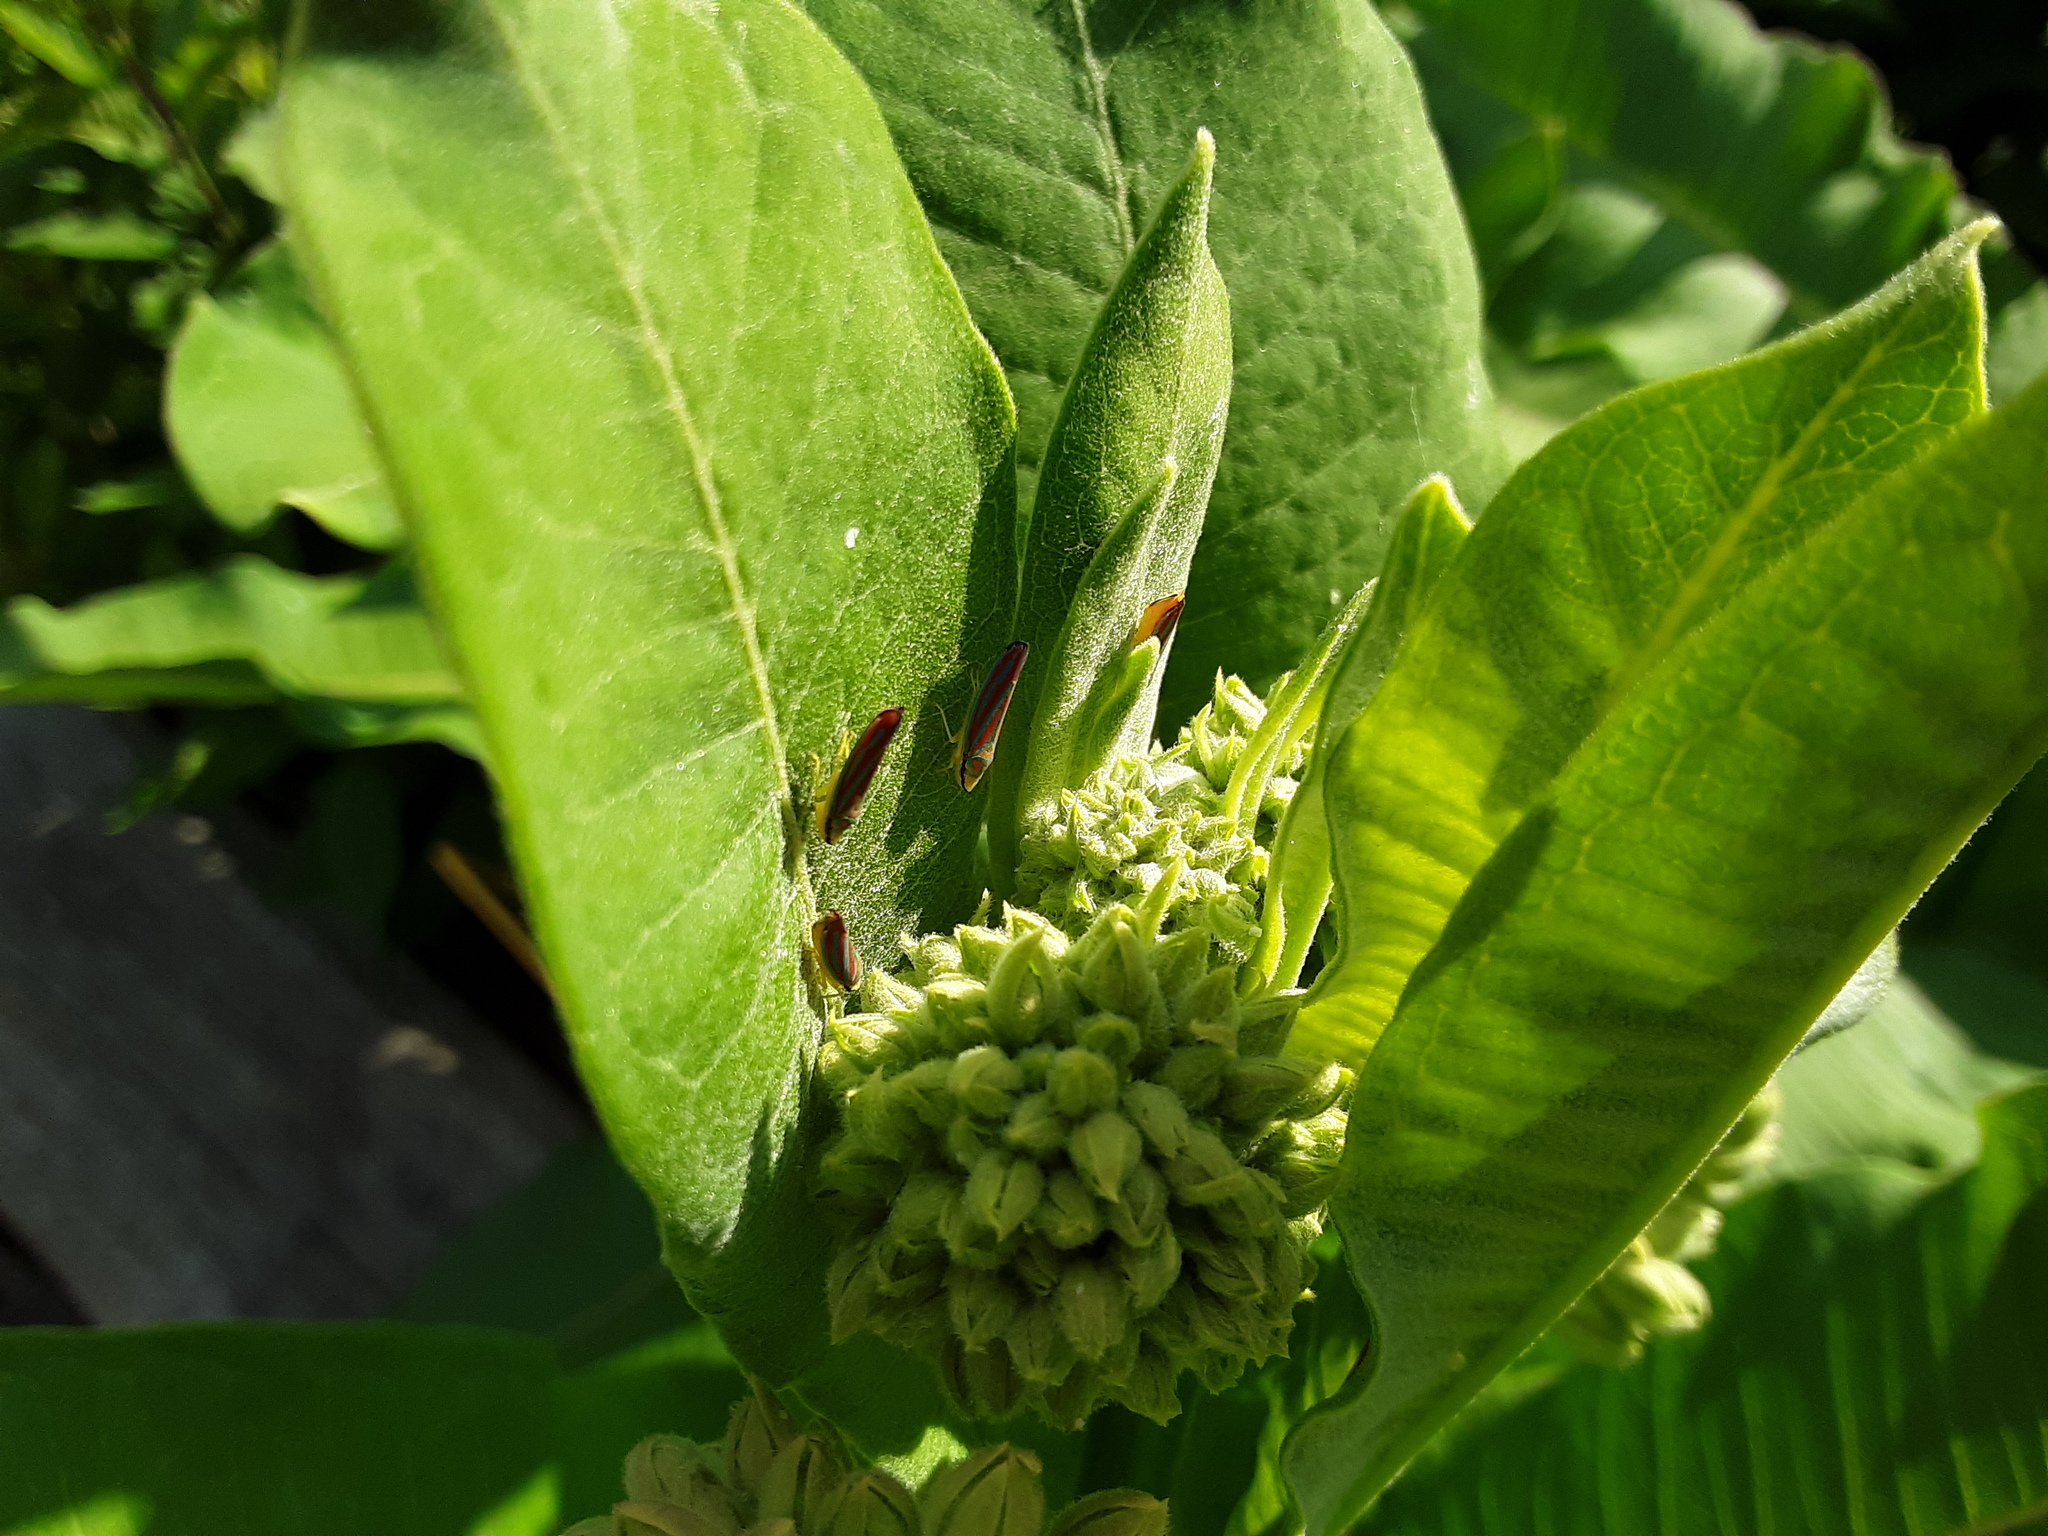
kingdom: Animalia
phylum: Arthropoda
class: Insecta
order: Hemiptera
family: Cicadellidae
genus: Graphocephala
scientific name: Graphocephala coccinea
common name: Candy-striped leafhopper
